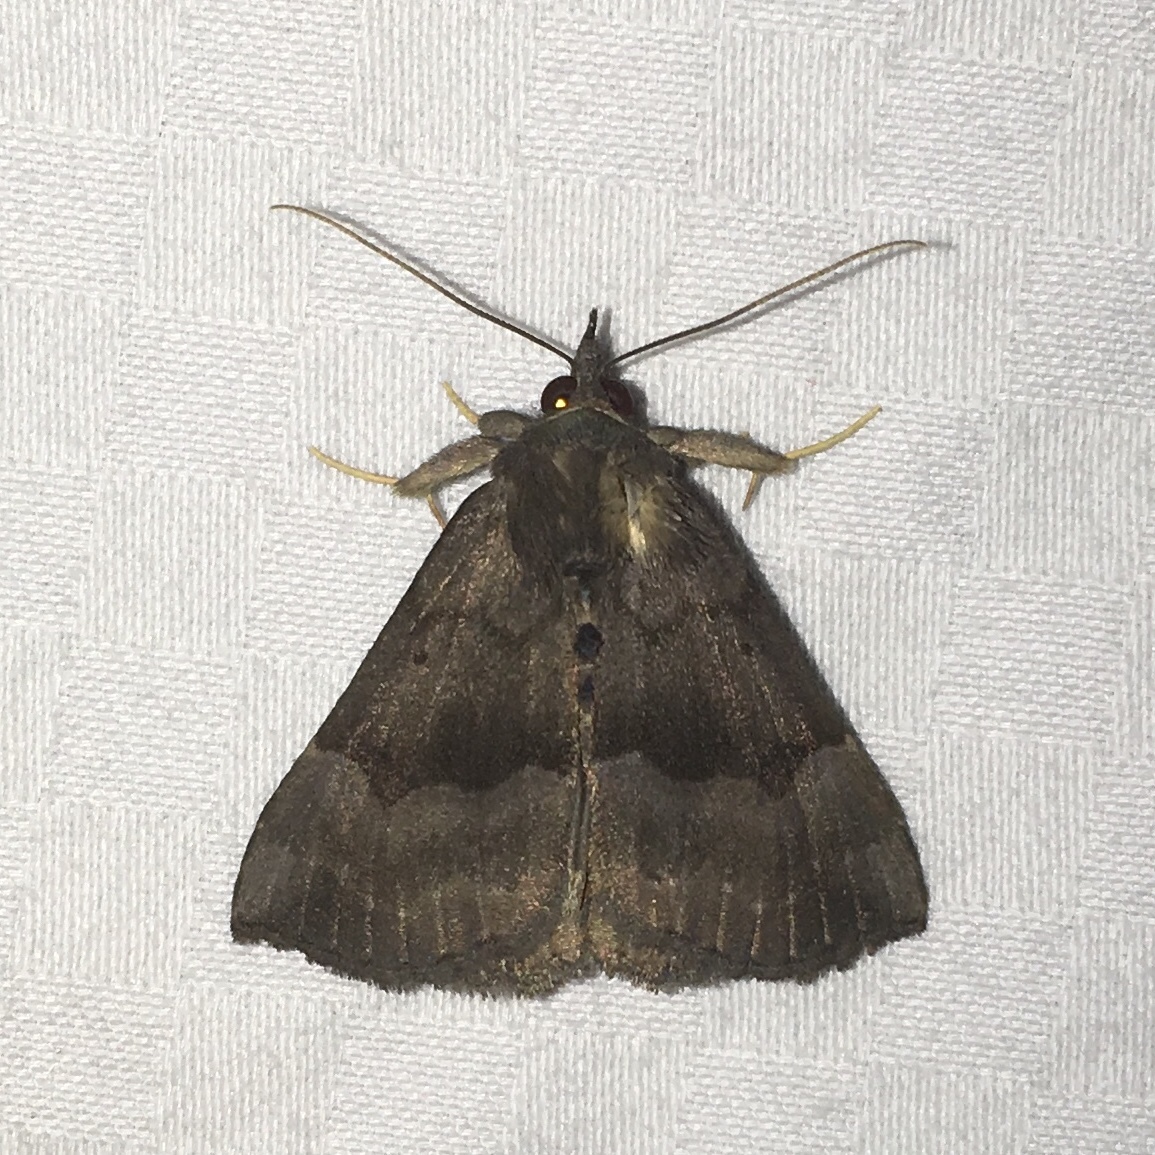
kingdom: Animalia
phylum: Arthropoda
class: Insecta
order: Lepidoptera
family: Erebidae
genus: Hypena
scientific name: Hypena madefactalis
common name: Gray-edged snout
